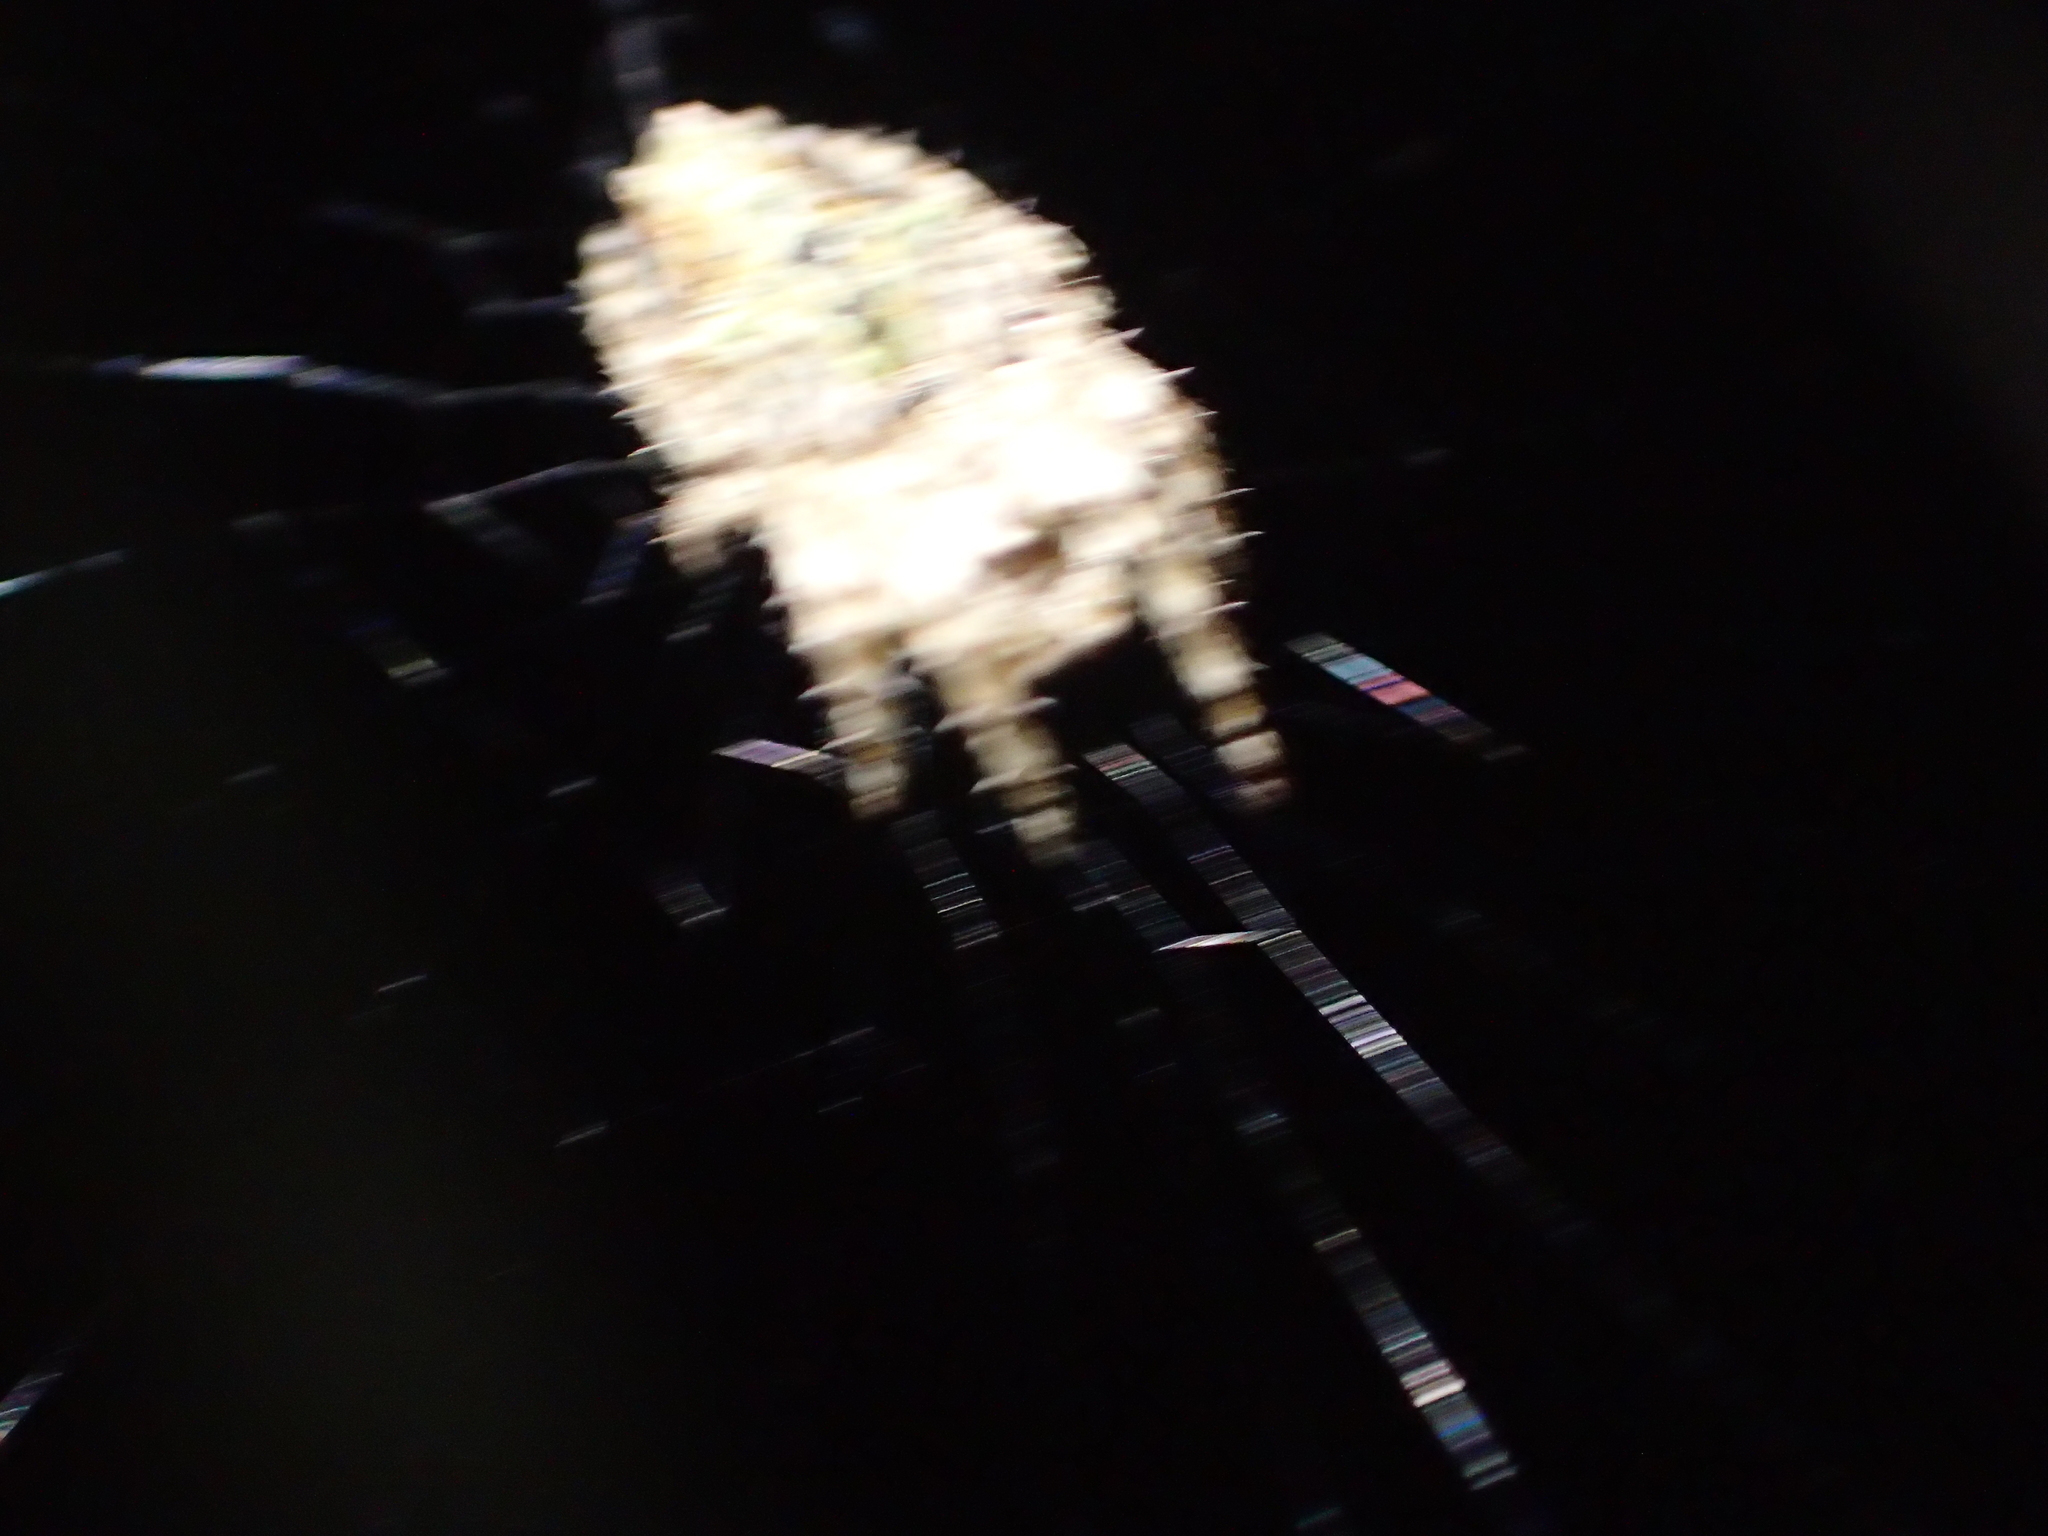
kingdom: Animalia
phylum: Arthropoda
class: Arachnida
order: Araneae
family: Araneidae
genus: Eriophora
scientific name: Eriophora pustulosa
